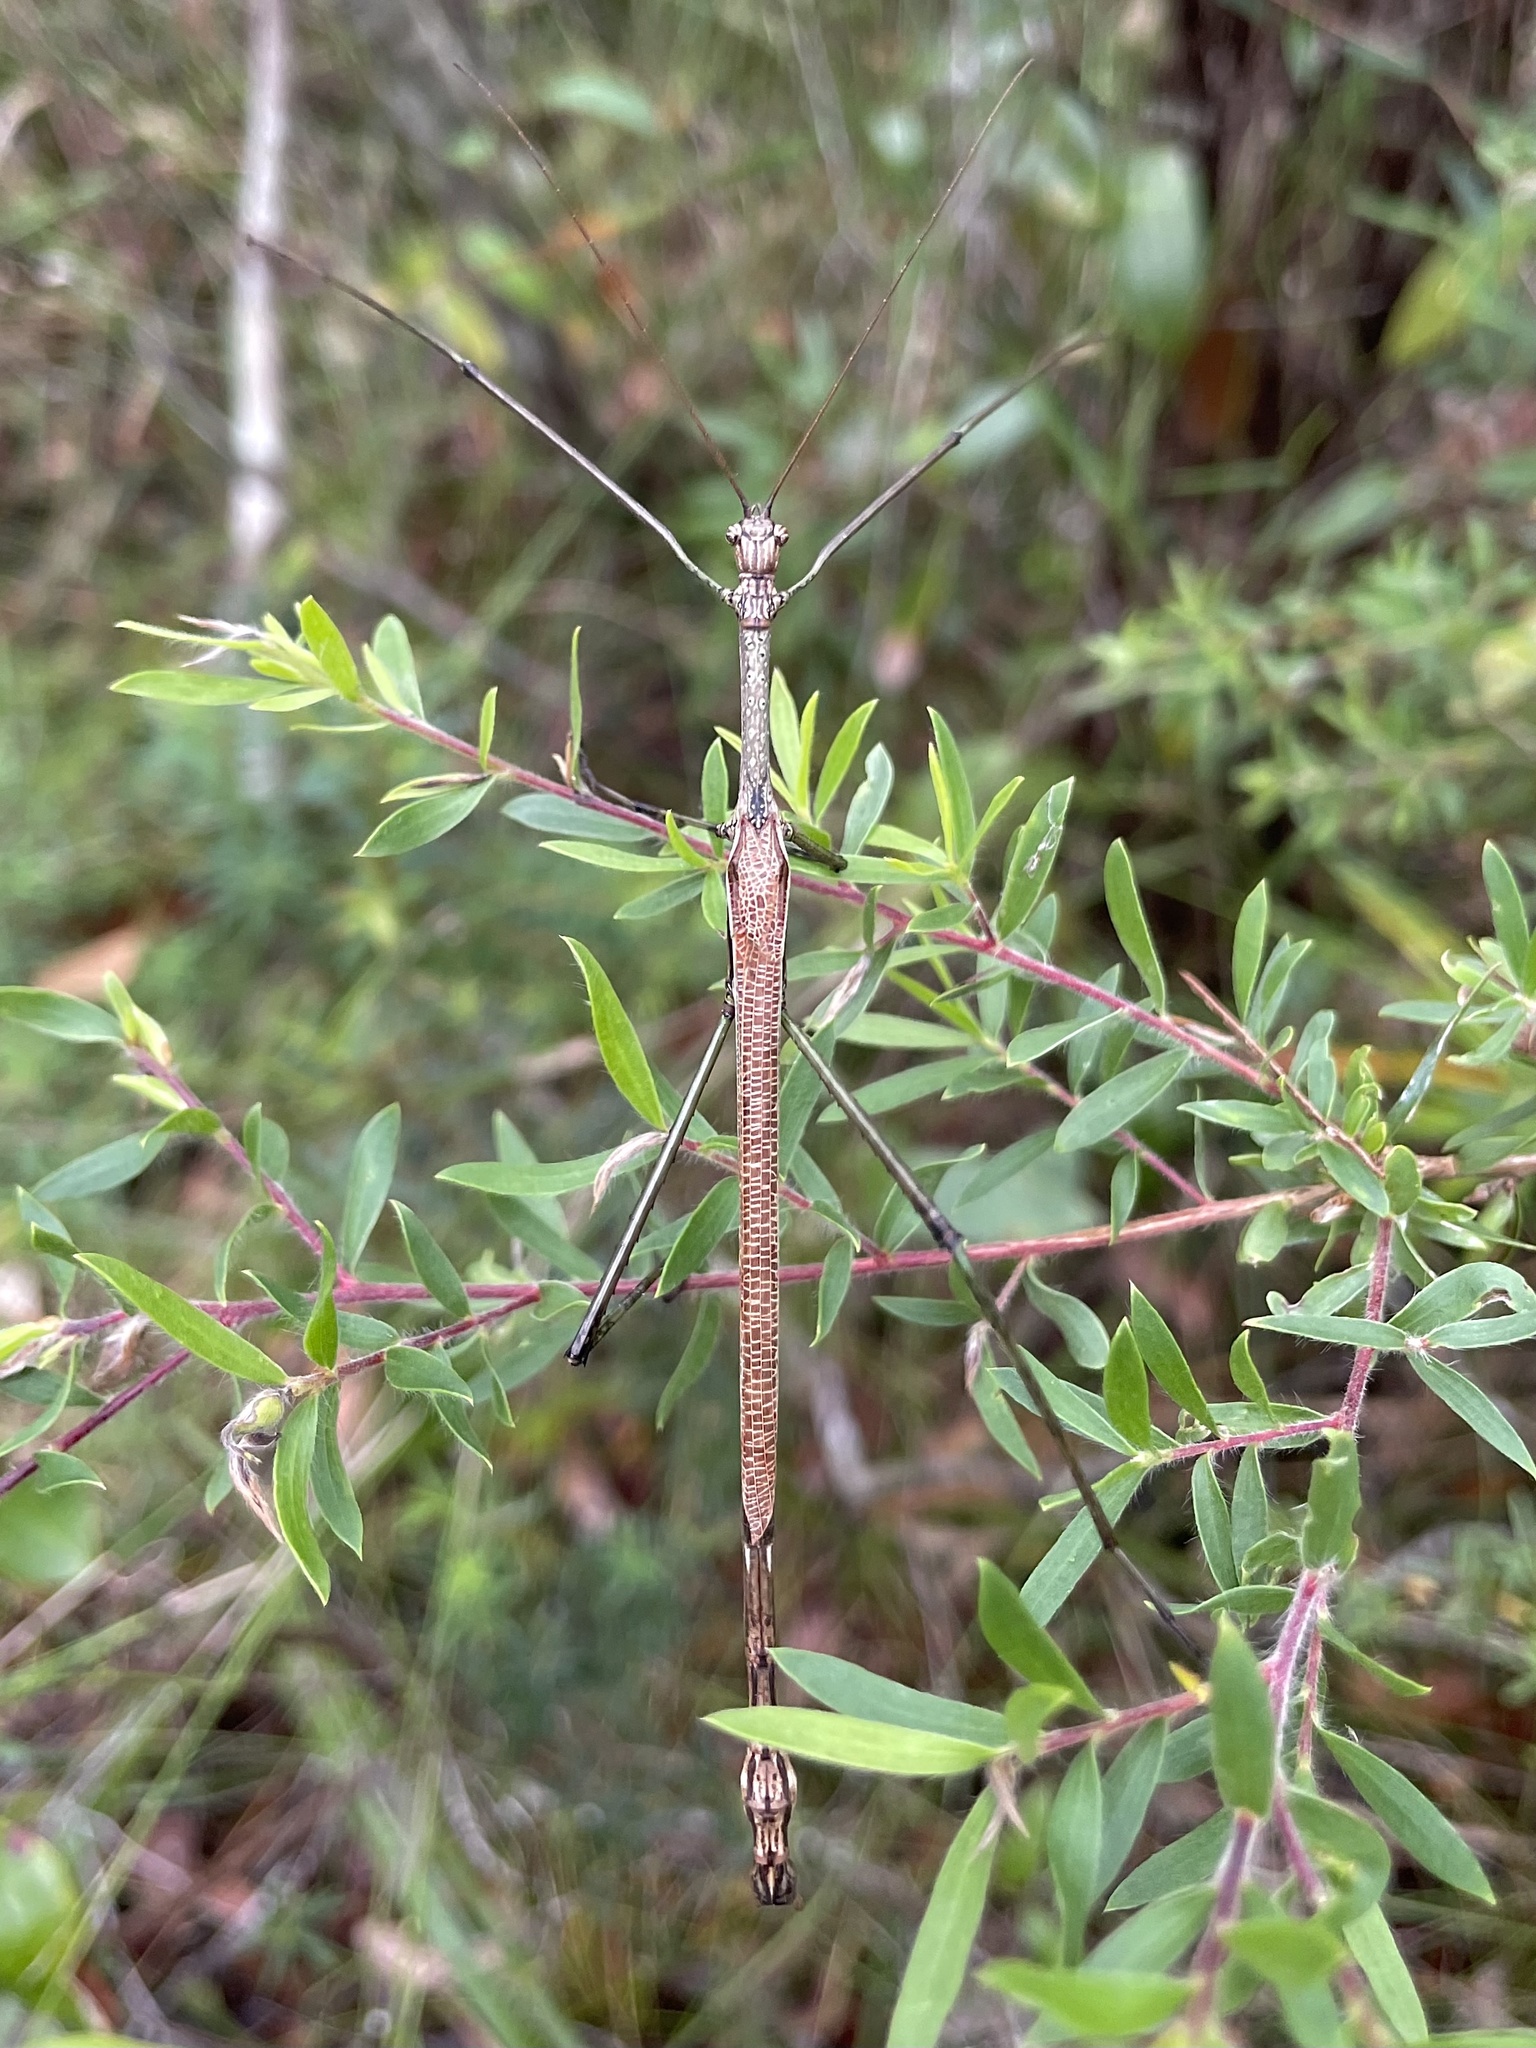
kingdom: Animalia
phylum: Arthropoda
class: Insecta
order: Phasmida
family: Phasmatidae
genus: Anchiale
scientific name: Anchiale austrotessulata
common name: Tessellated stick-insect
